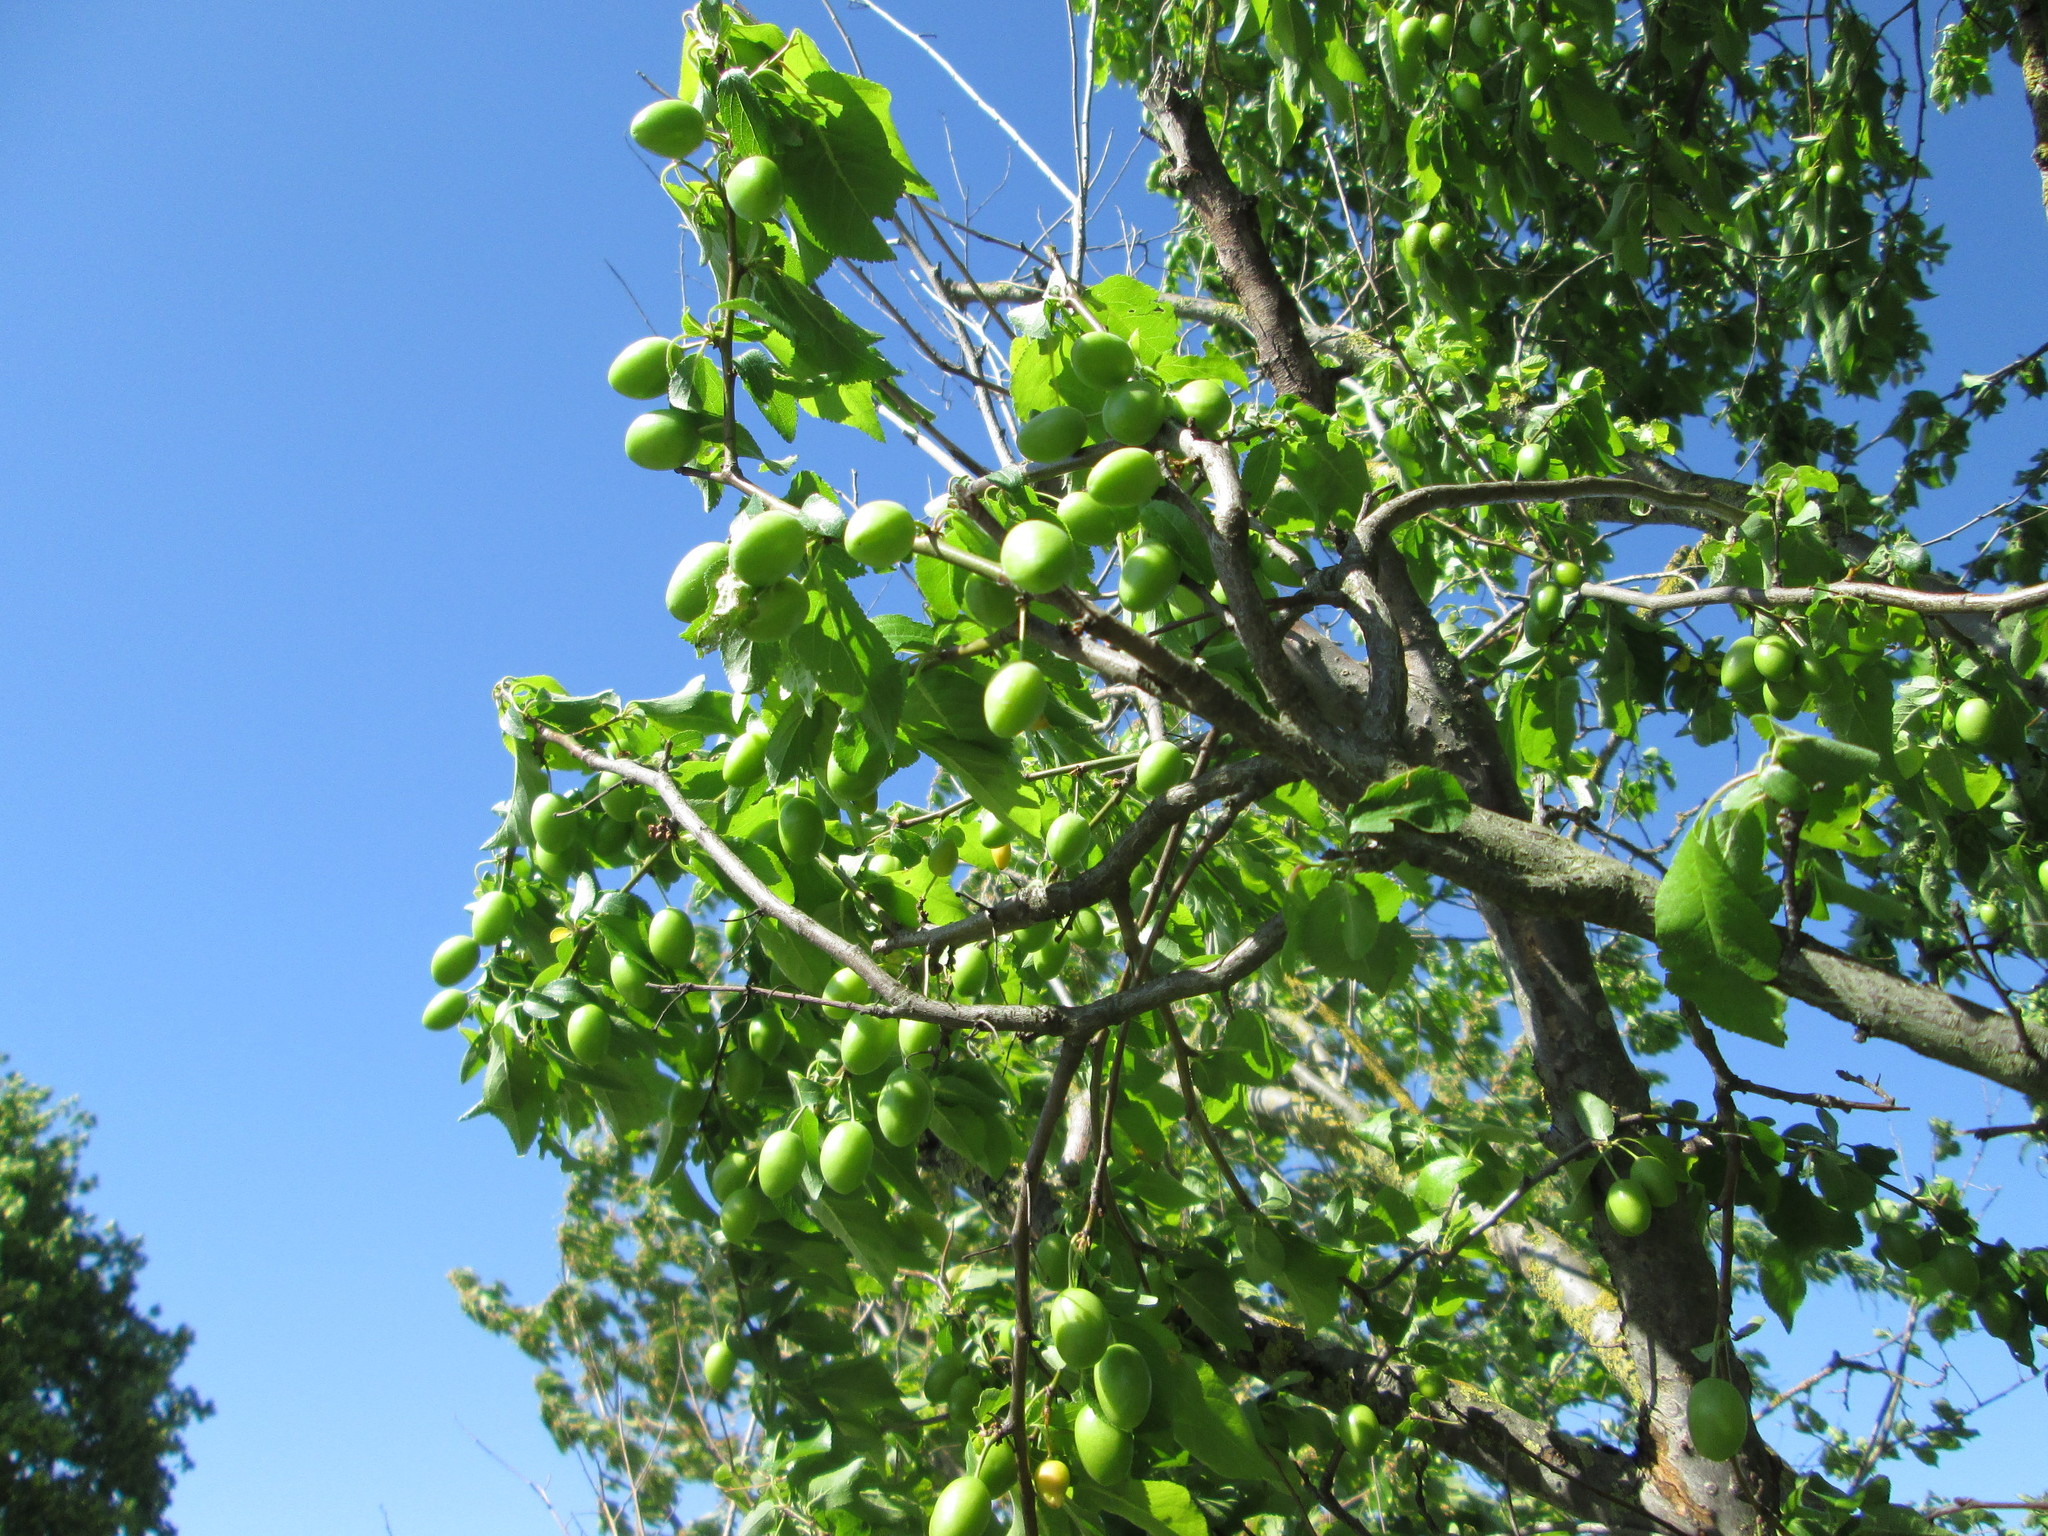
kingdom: Plantae
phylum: Tracheophyta
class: Magnoliopsida
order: Rosales
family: Rosaceae
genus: Prunus
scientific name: Prunus cerasifera
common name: Cherry plum
